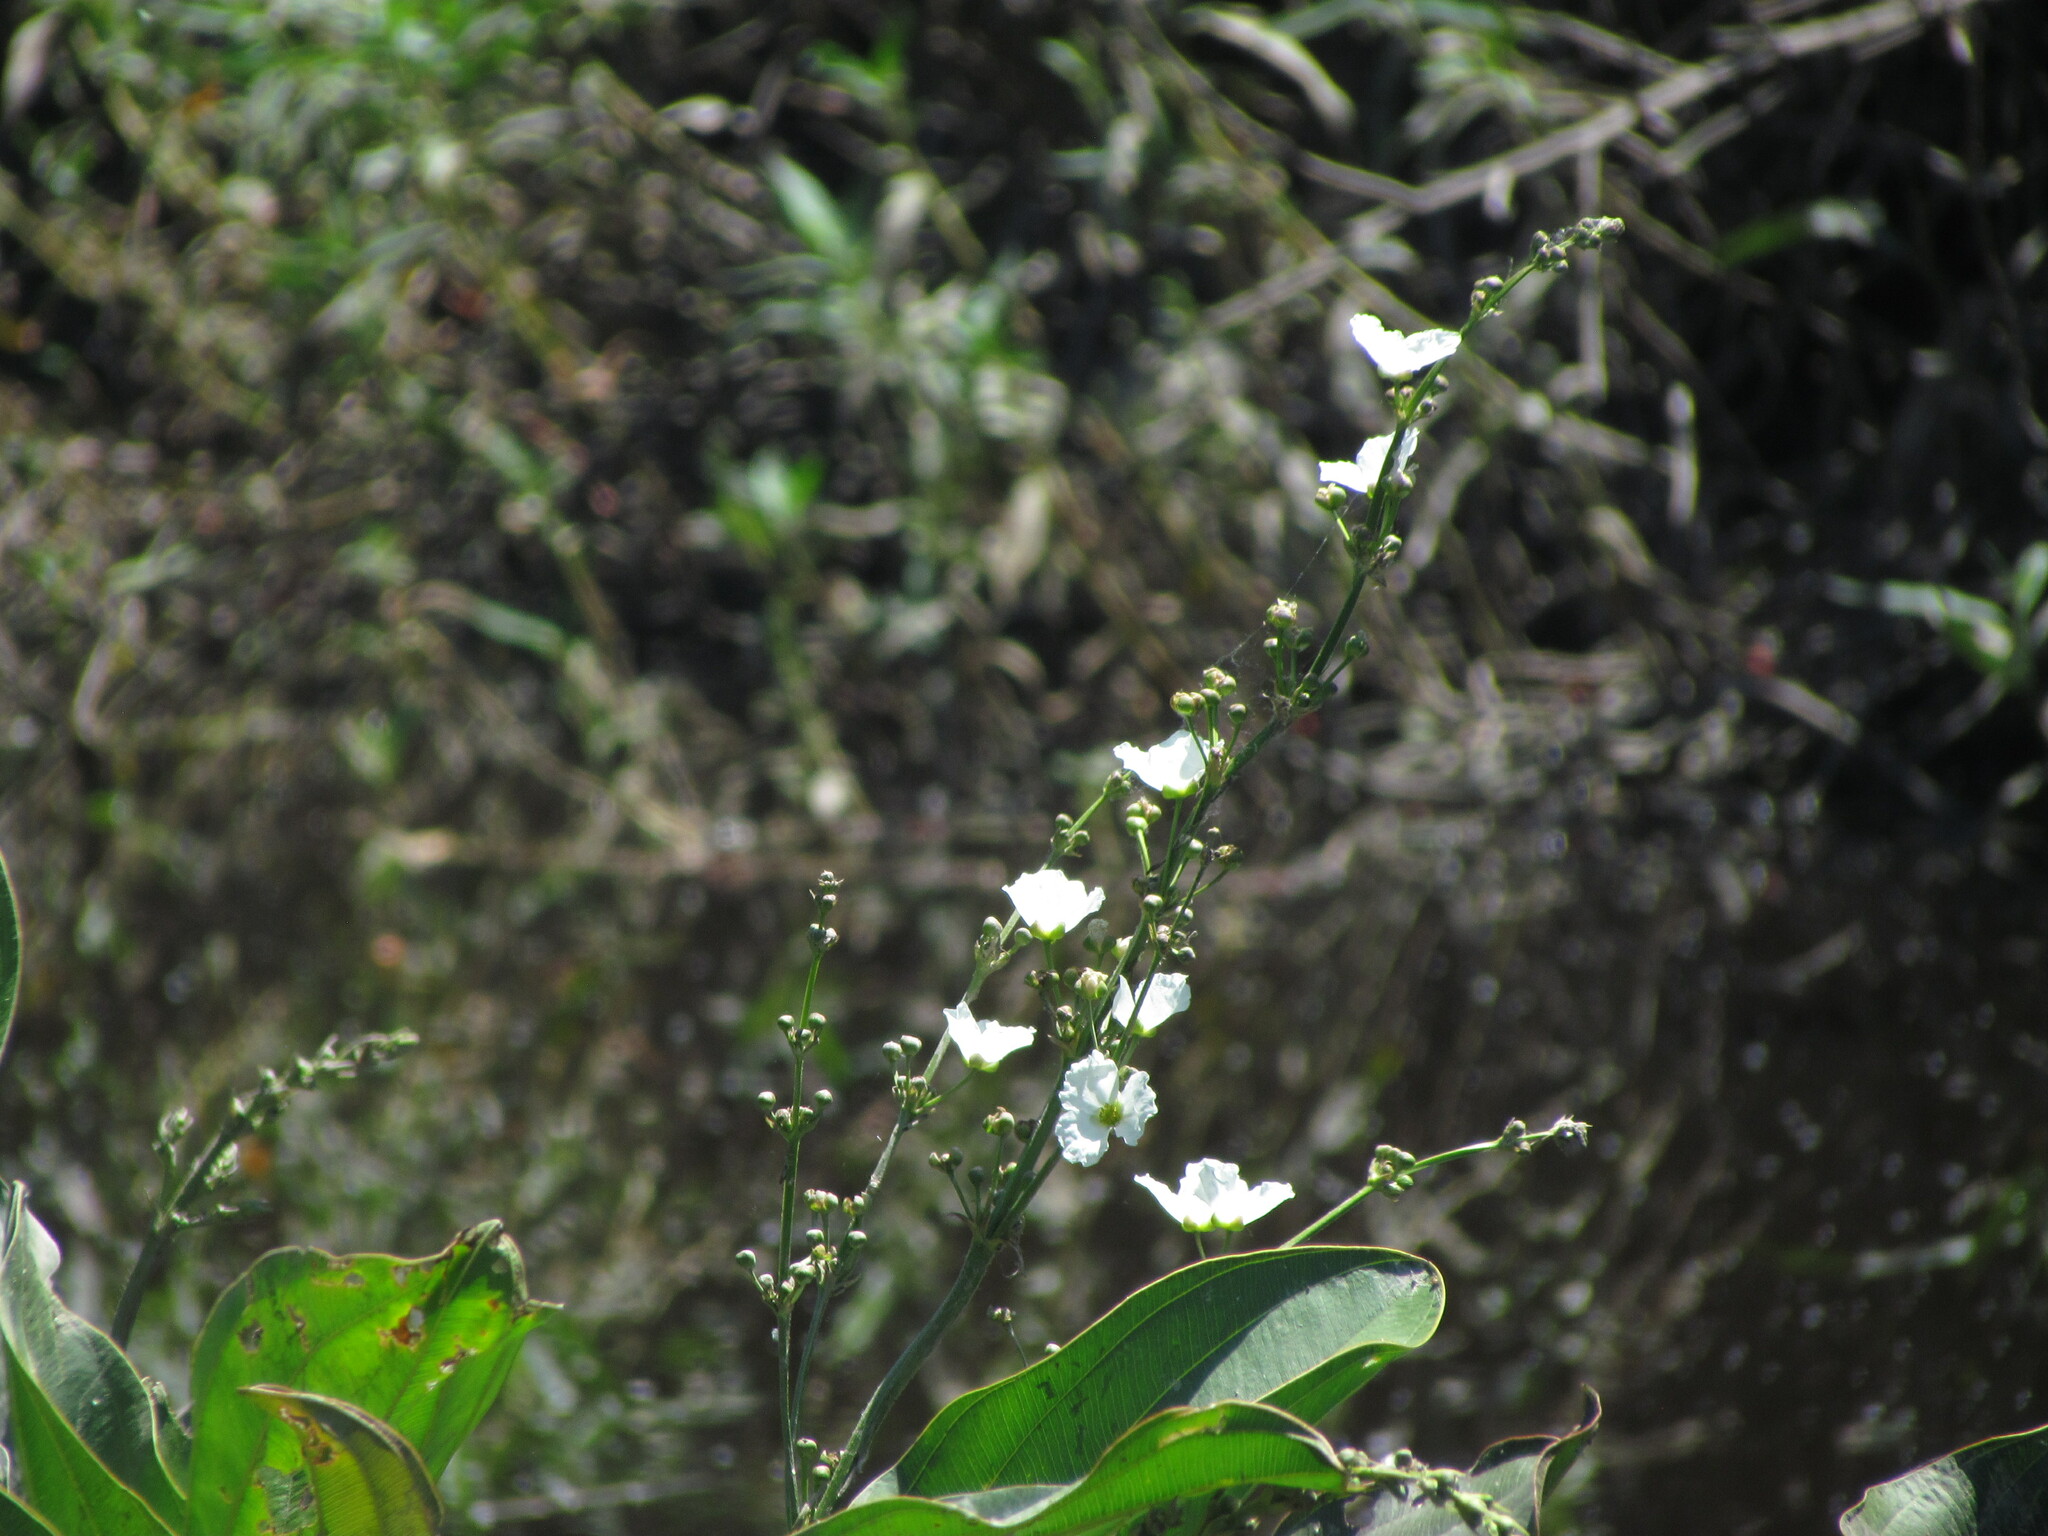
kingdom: Plantae
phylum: Tracheophyta
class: Liliopsida
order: Alismatales
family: Alismataceae
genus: Aquarius
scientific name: Aquarius grandiflorus
